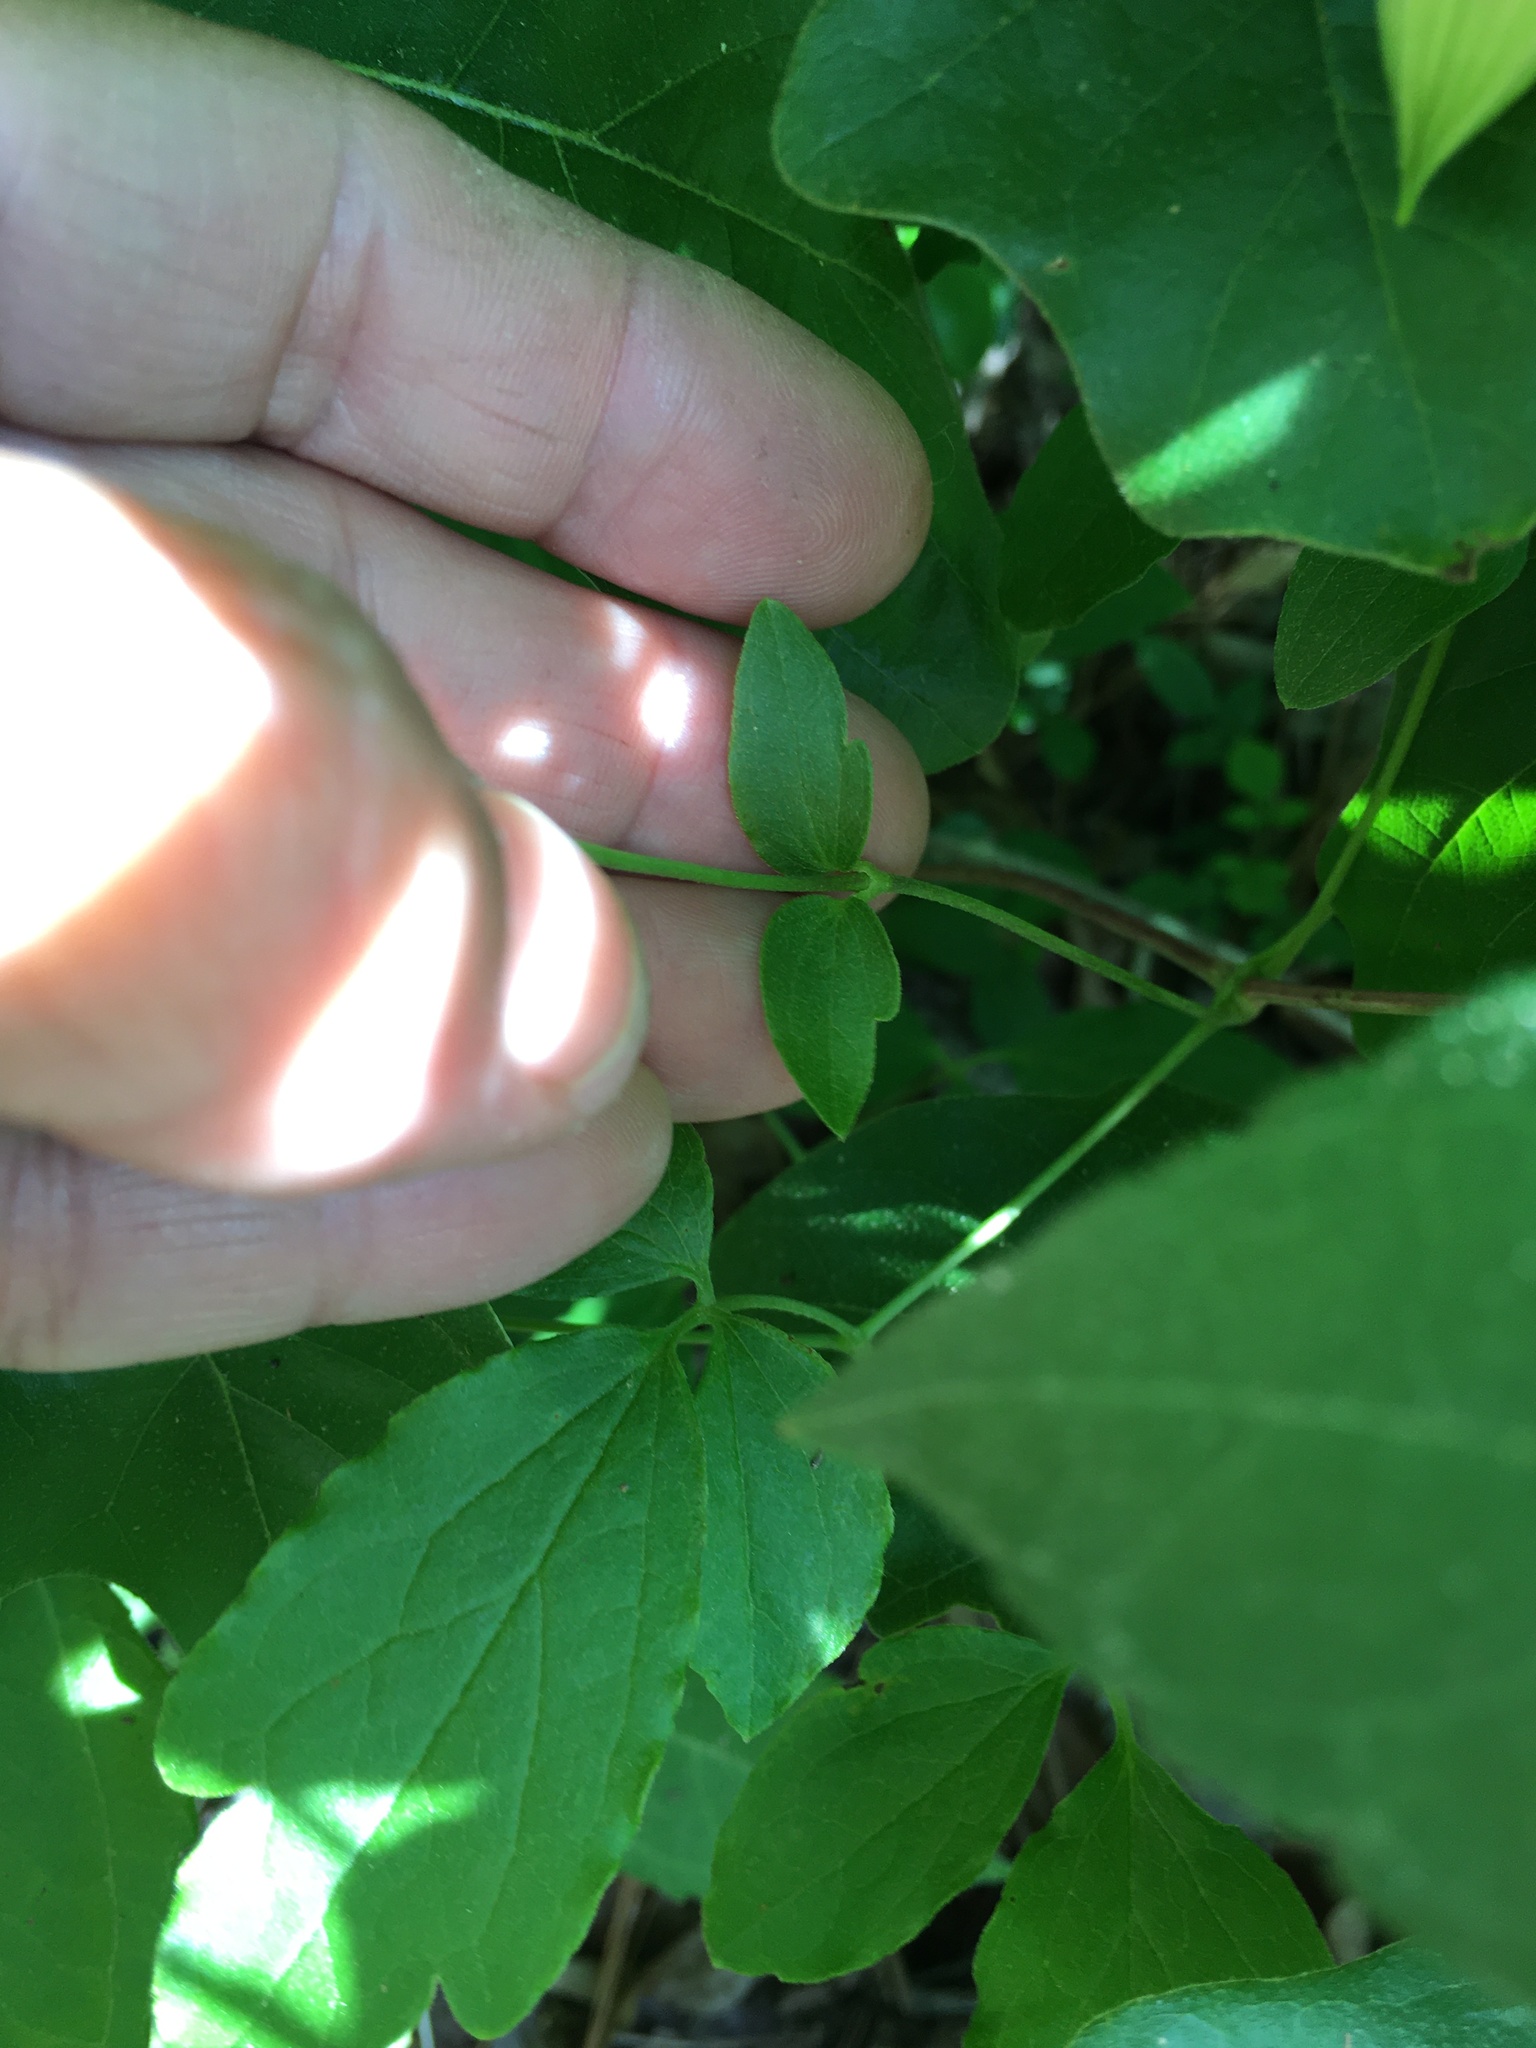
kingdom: Plantae
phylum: Tracheophyta
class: Magnoliopsida
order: Ranunculales
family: Ranunculaceae
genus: Clematis
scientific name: Clematis viorna
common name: Leather-flower
